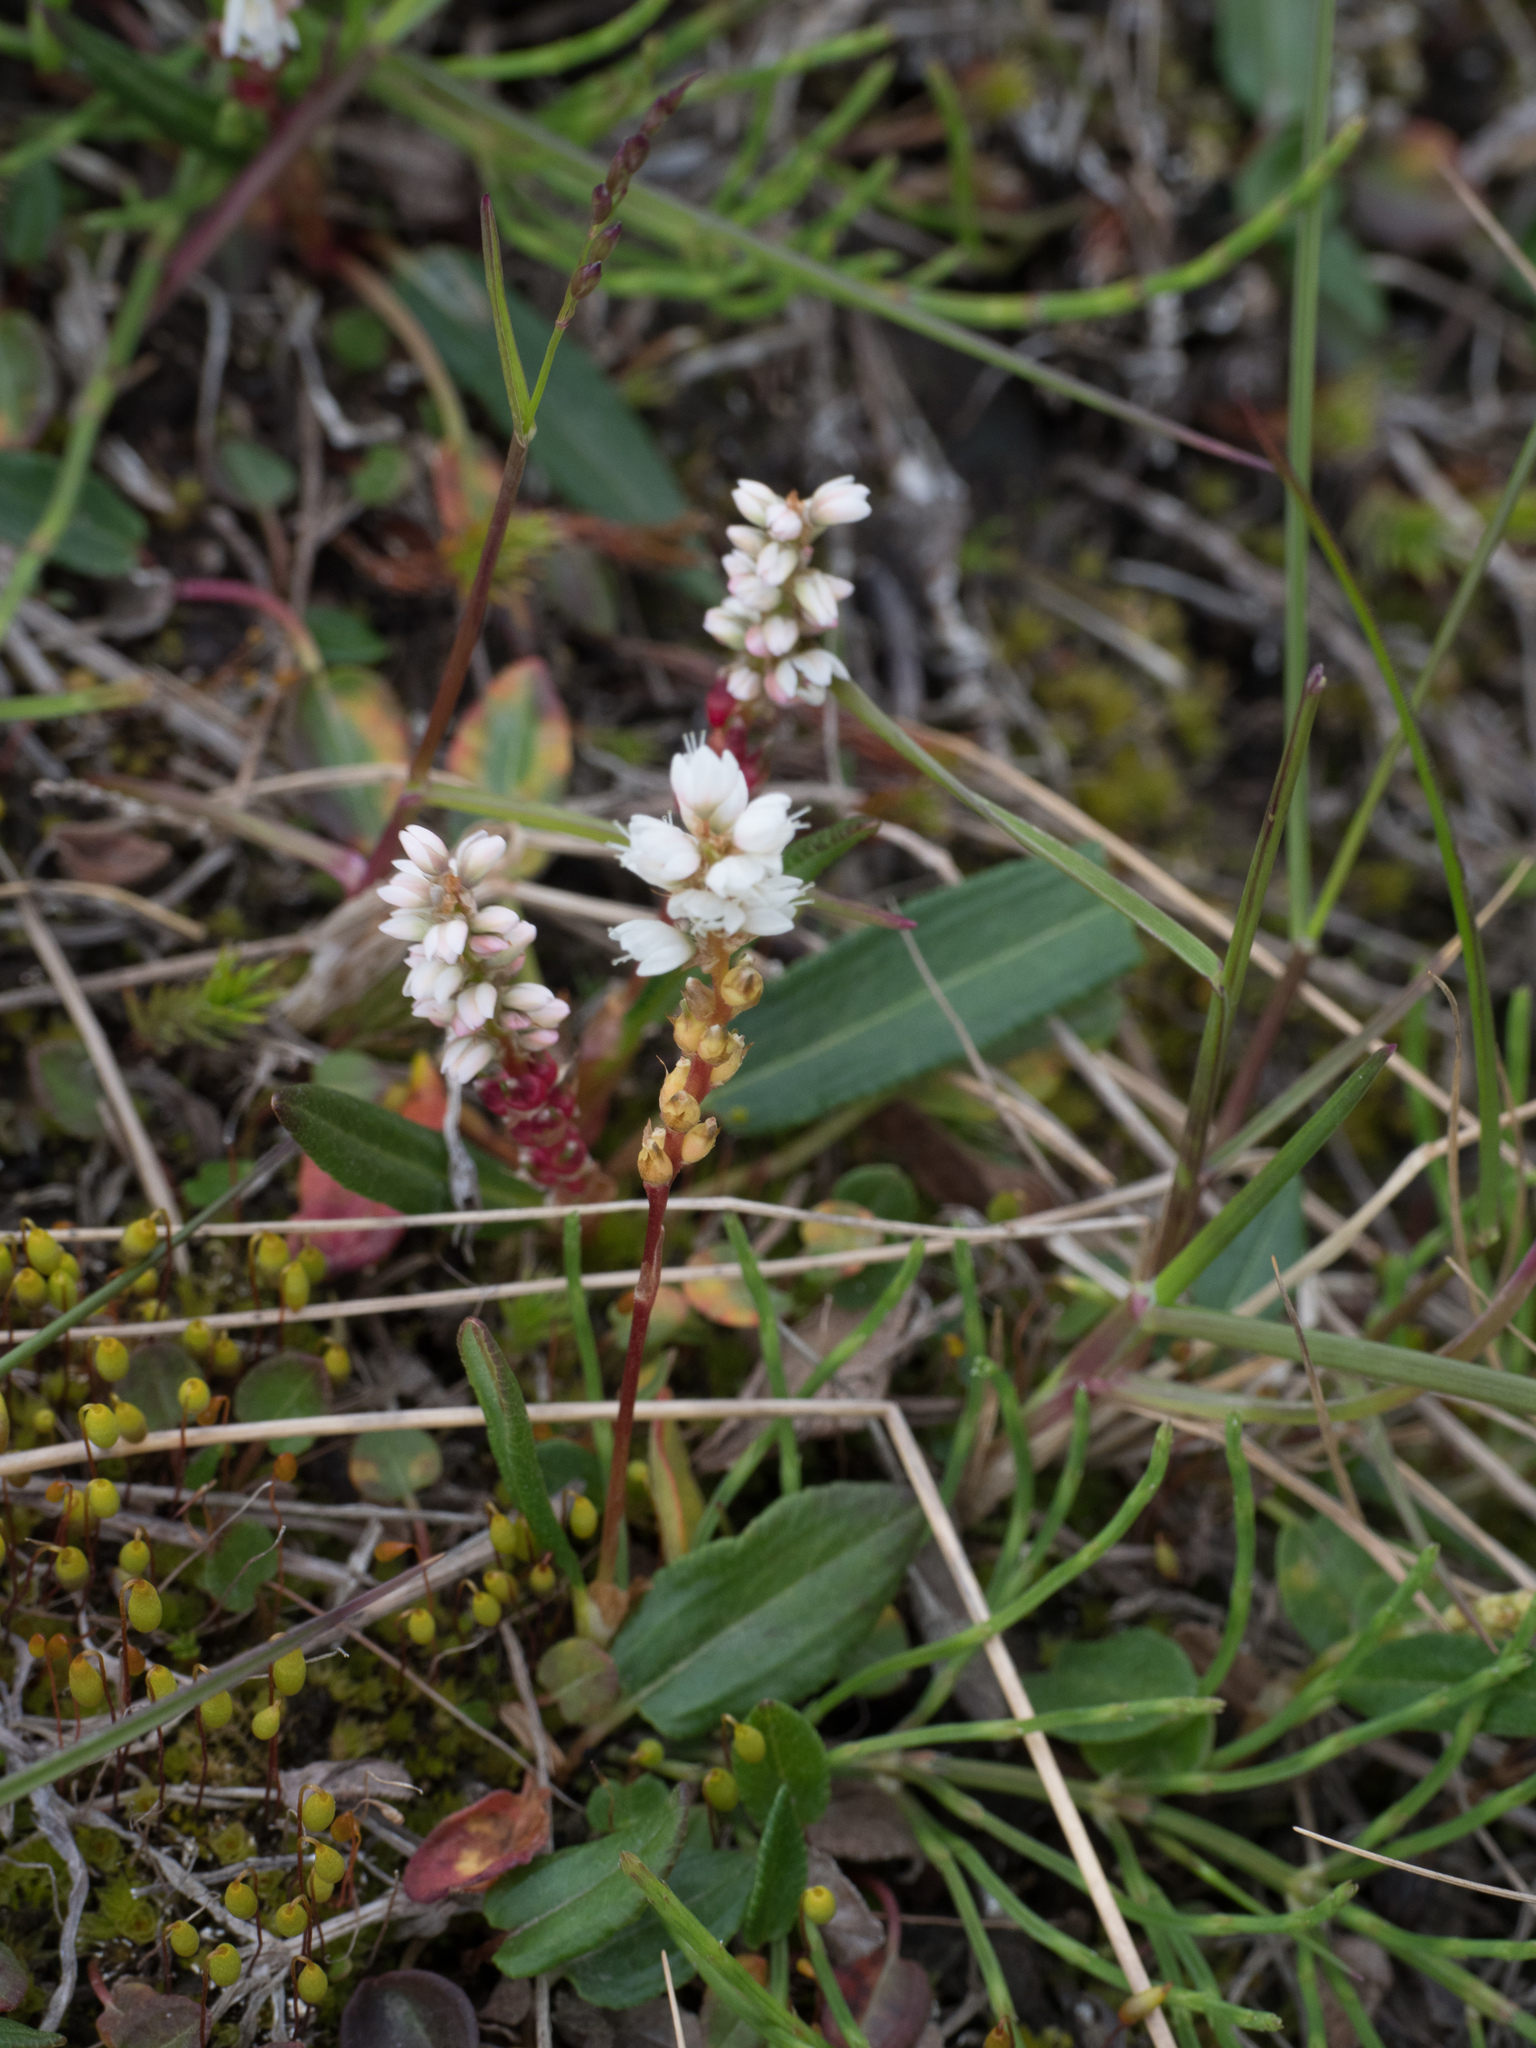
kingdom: Plantae
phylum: Tracheophyta
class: Magnoliopsida
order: Caryophyllales
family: Polygonaceae
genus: Bistorta
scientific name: Bistorta vivipara
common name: Alpine bistort
